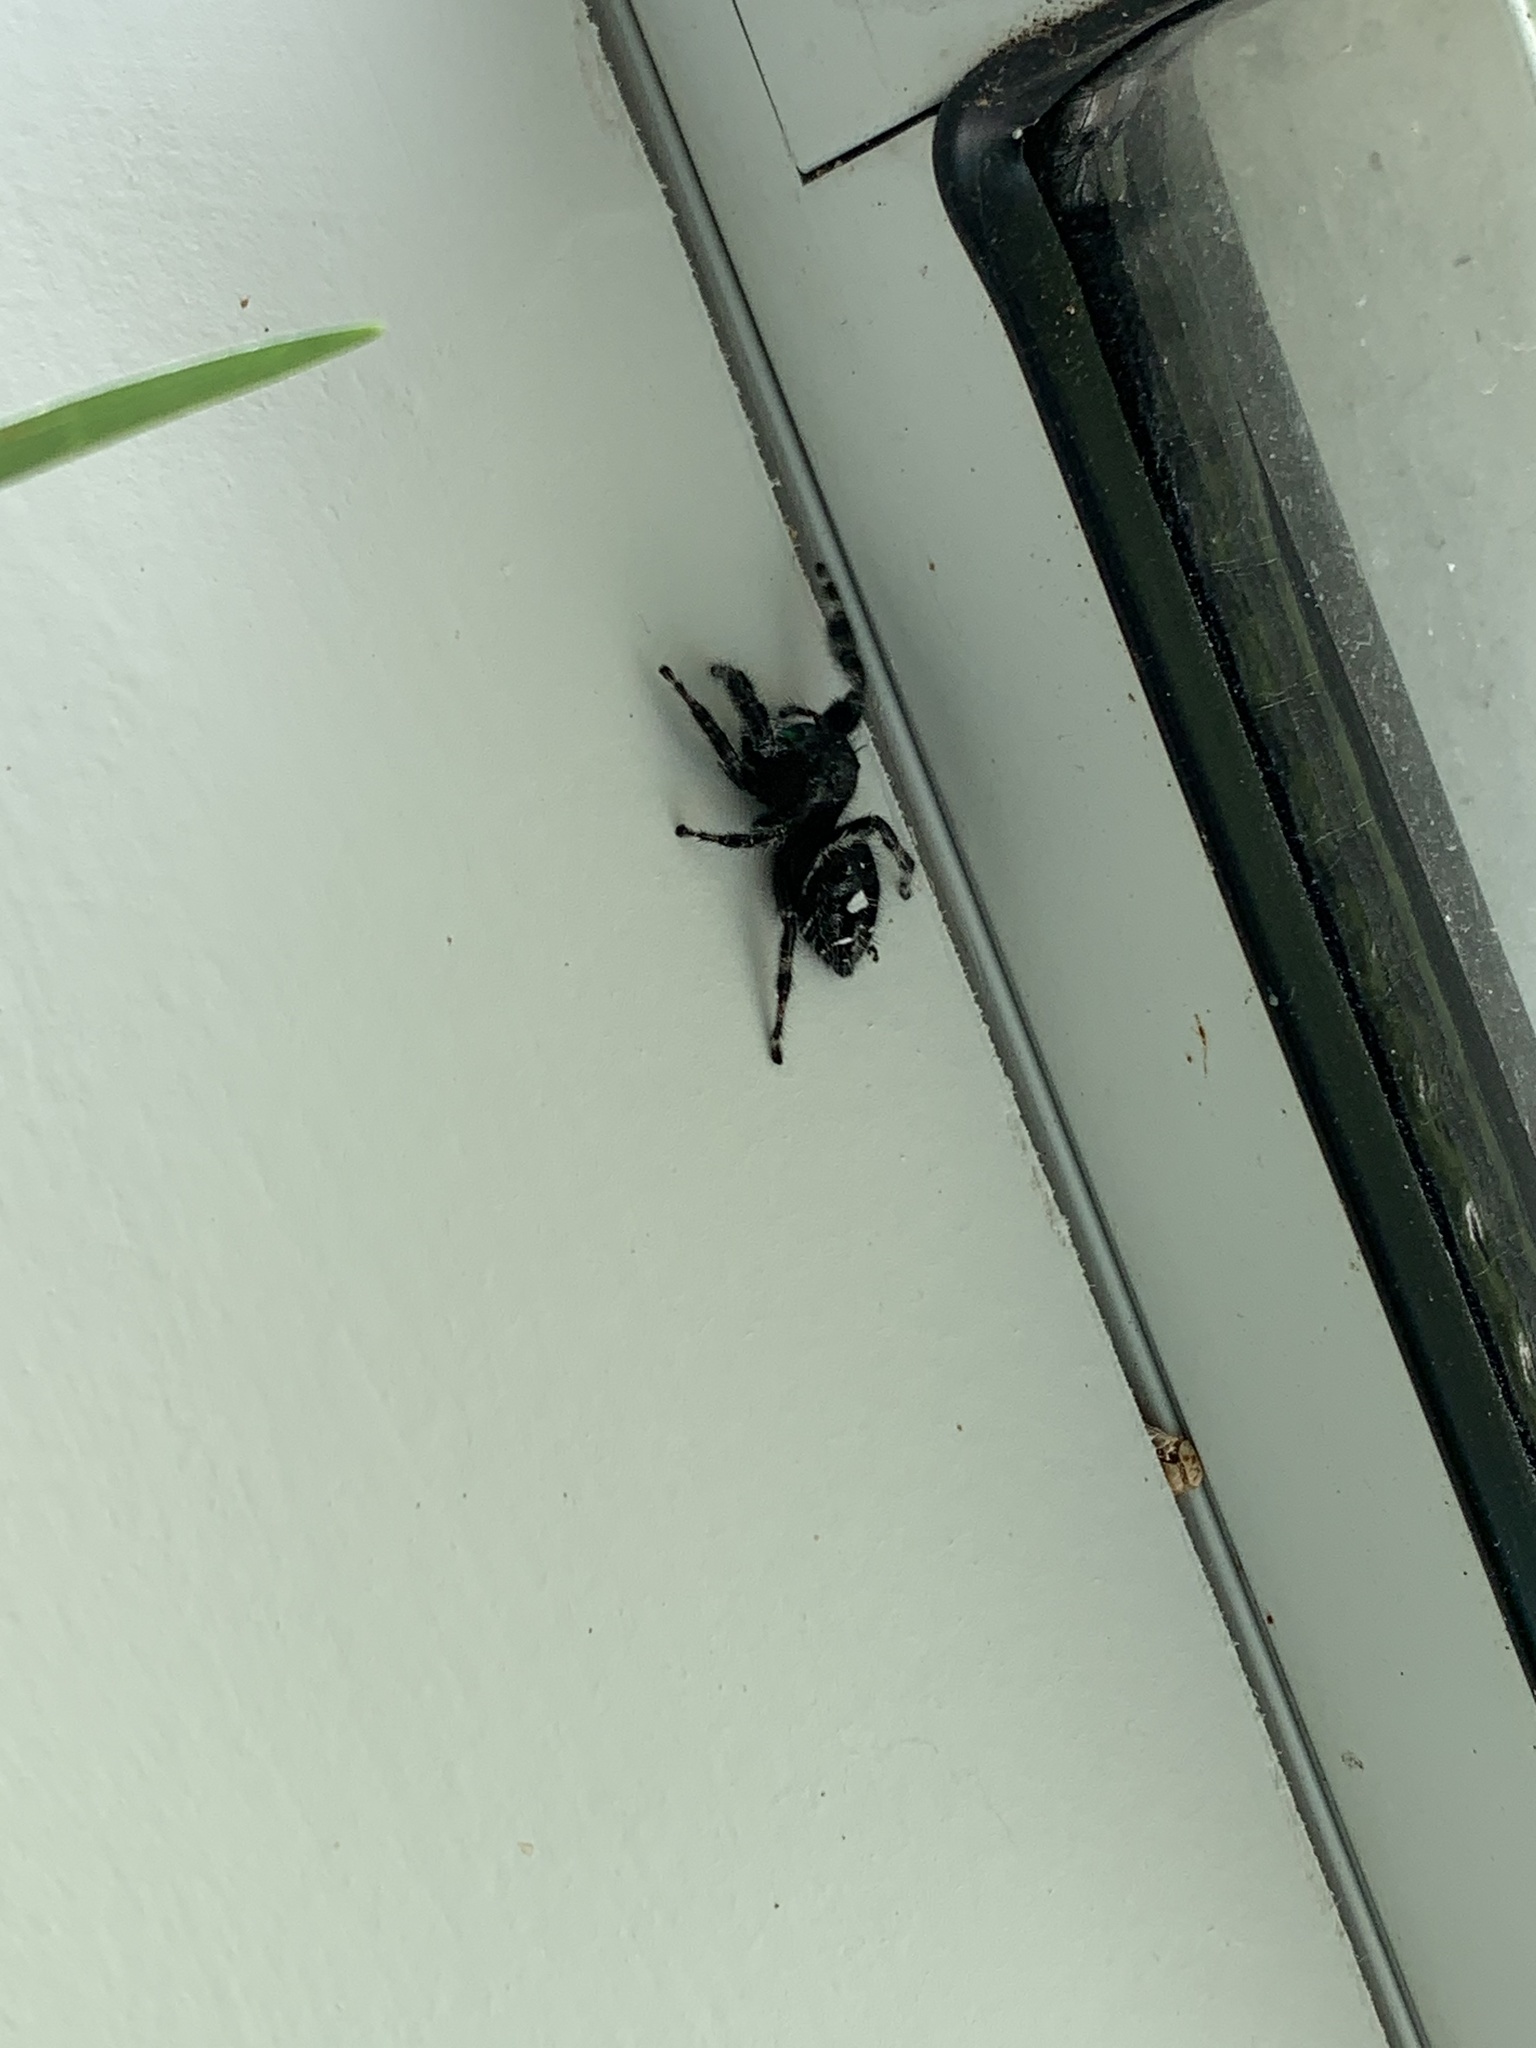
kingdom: Animalia
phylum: Arthropoda
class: Arachnida
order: Araneae
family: Salticidae
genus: Phidippus
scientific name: Phidippus audax
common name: Bold jumper
